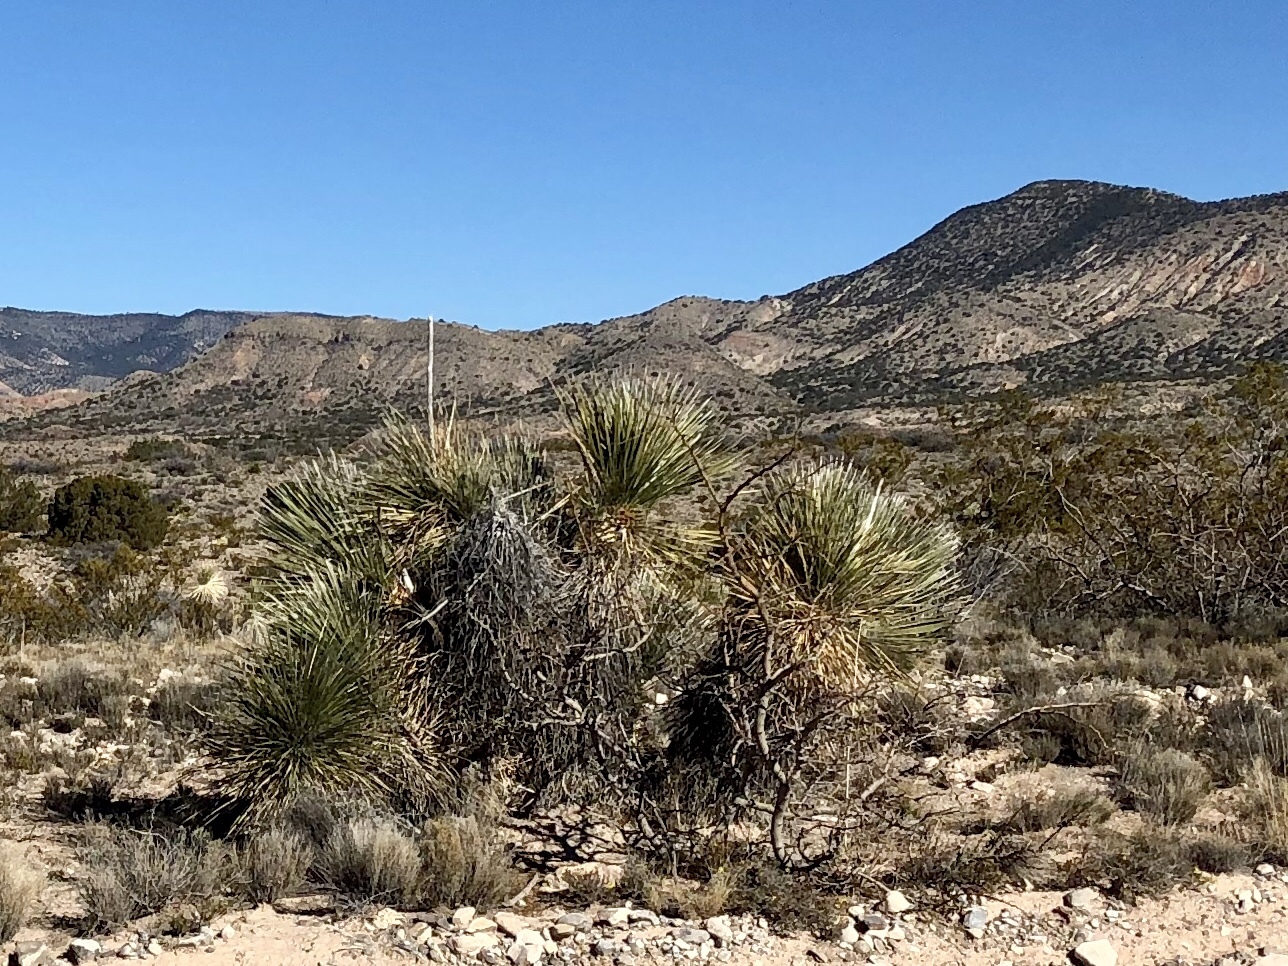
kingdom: Plantae
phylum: Tracheophyta
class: Liliopsida
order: Asparagales
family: Asparagaceae
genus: Yucca
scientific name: Yucca elata
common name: Palmella
